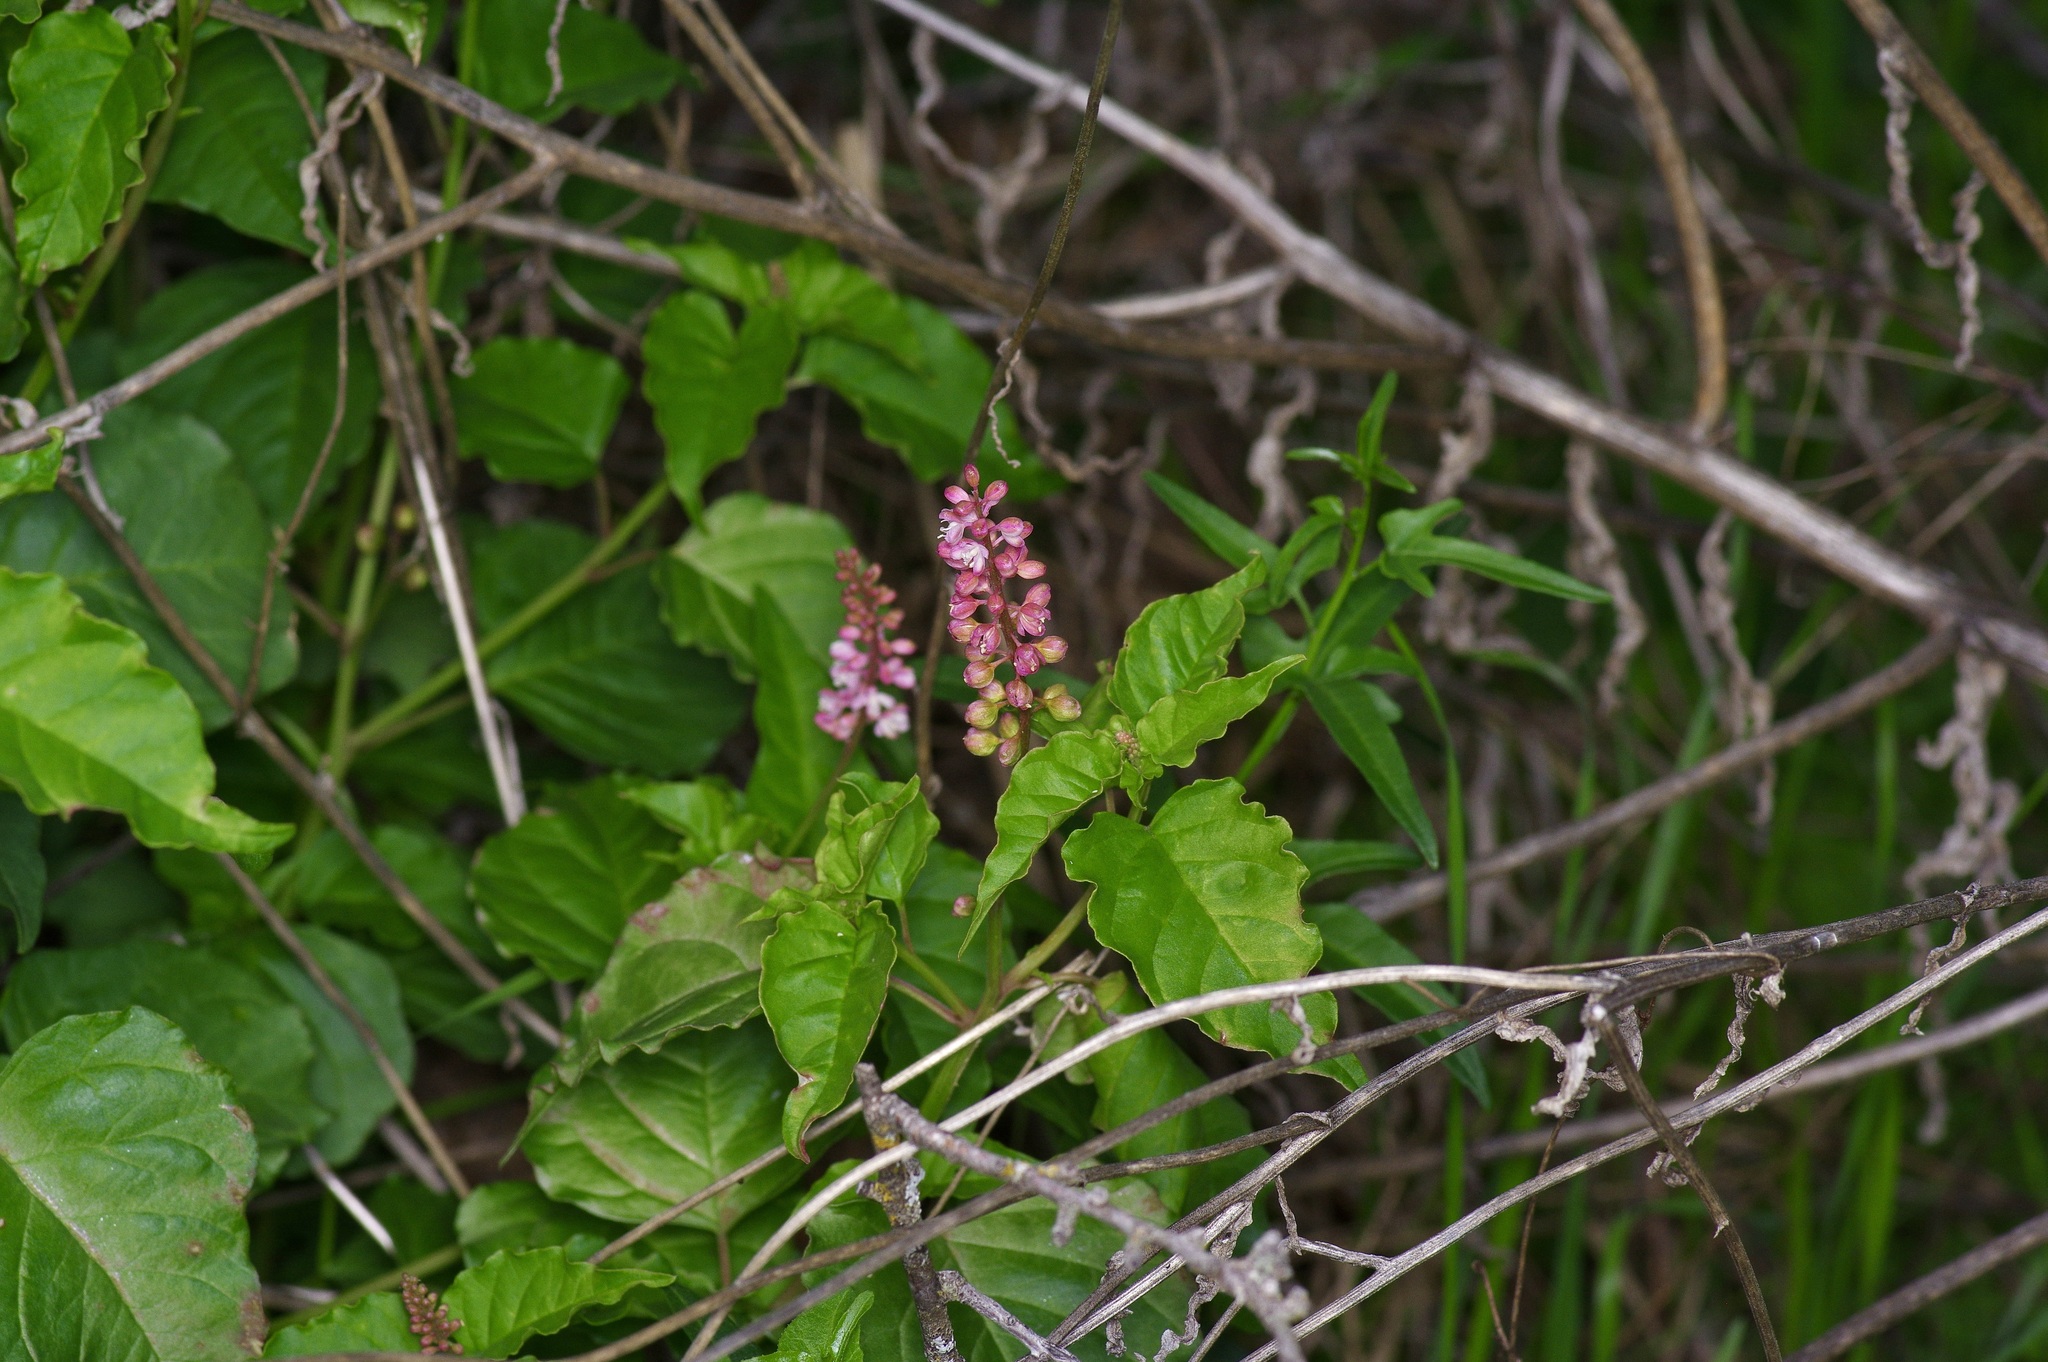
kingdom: Plantae
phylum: Tracheophyta
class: Magnoliopsida
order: Caryophyllales
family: Phytolaccaceae
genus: Rivina
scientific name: Rivina humilis
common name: Rougeplant
